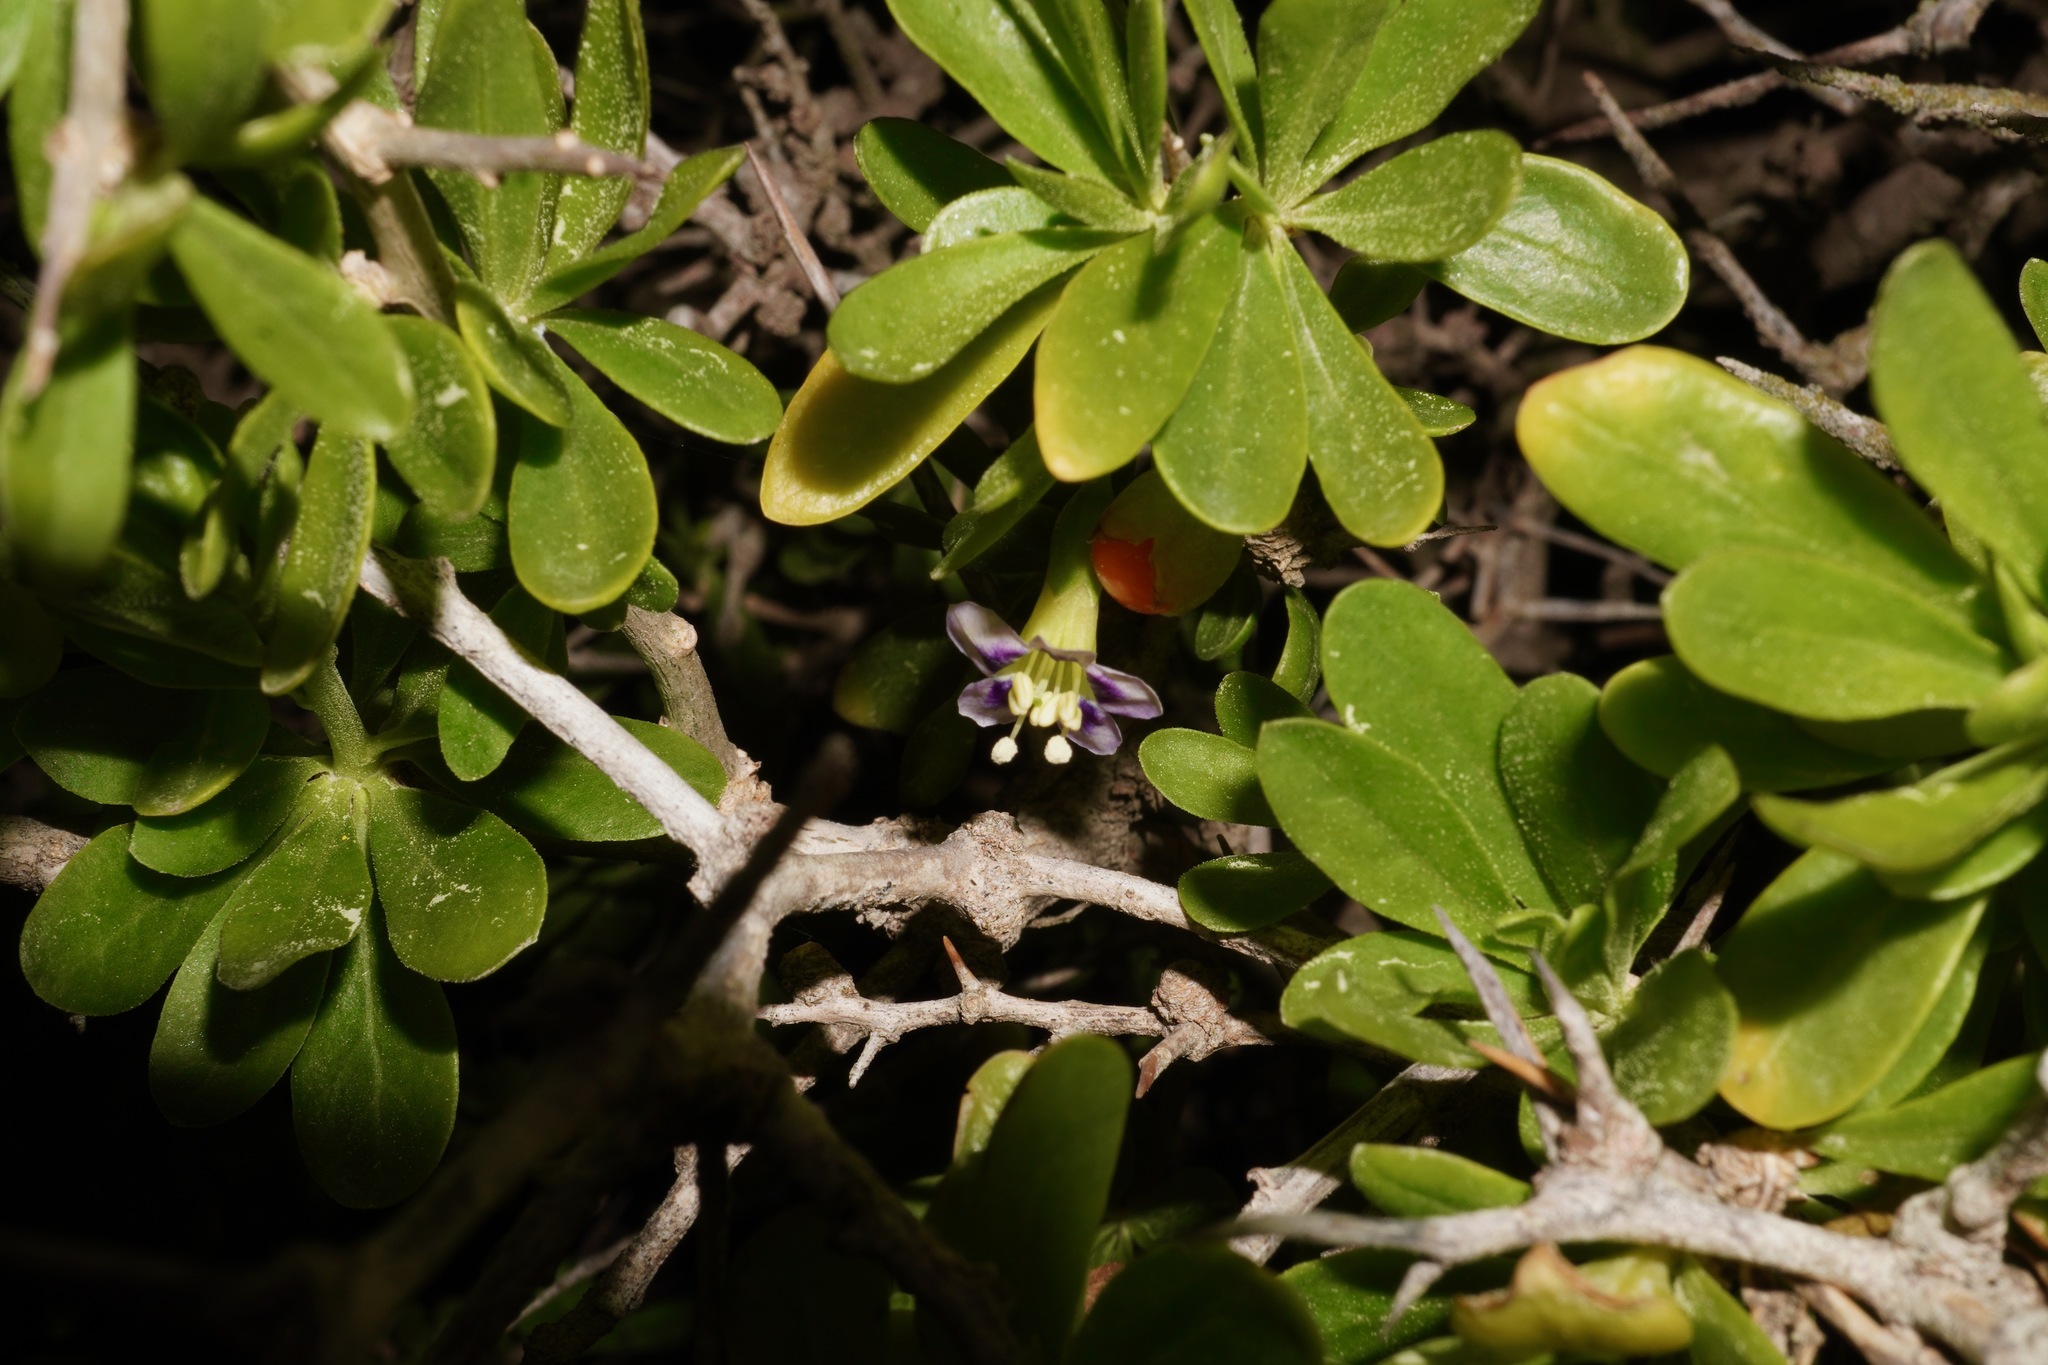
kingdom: Plantae
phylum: Tracheophyta
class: Magnoliopsida
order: Solanales
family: Solanaceae
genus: Lycium
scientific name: Lycium ferocissimum
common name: African boxthorn
